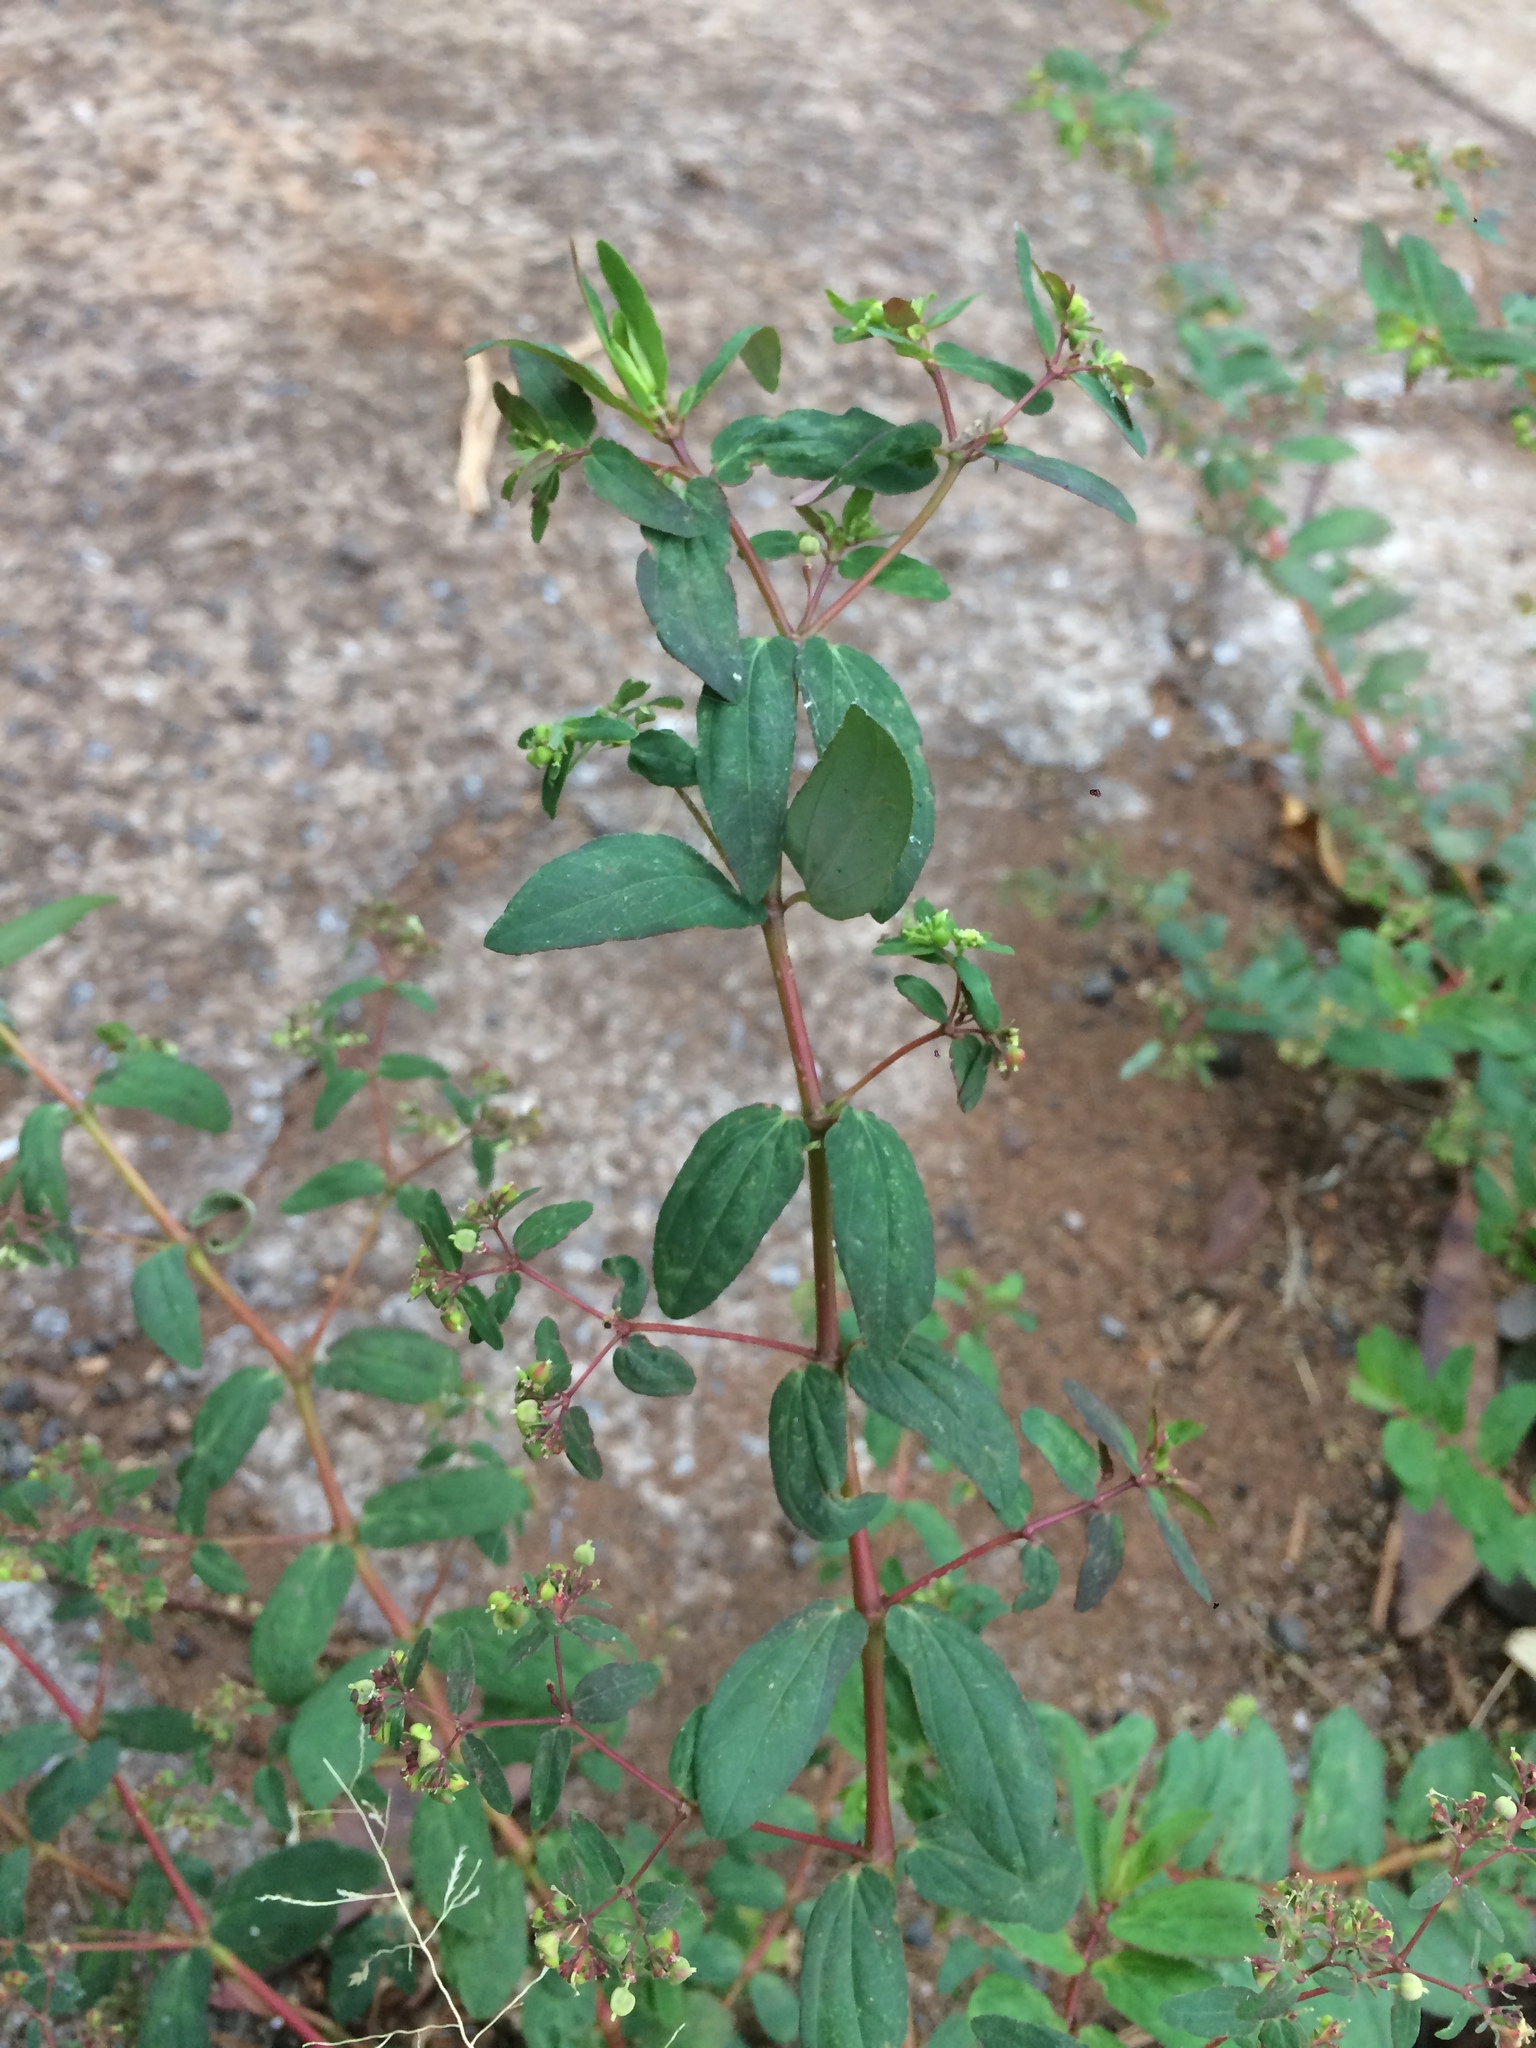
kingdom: Plantae
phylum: Tracheophyta
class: Magnoliopsida
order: Malpighiales
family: Euphorbiaceae
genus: Euphorbia
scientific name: Euphorbia hyssopifolia
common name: Hyssopleaf sandmat
